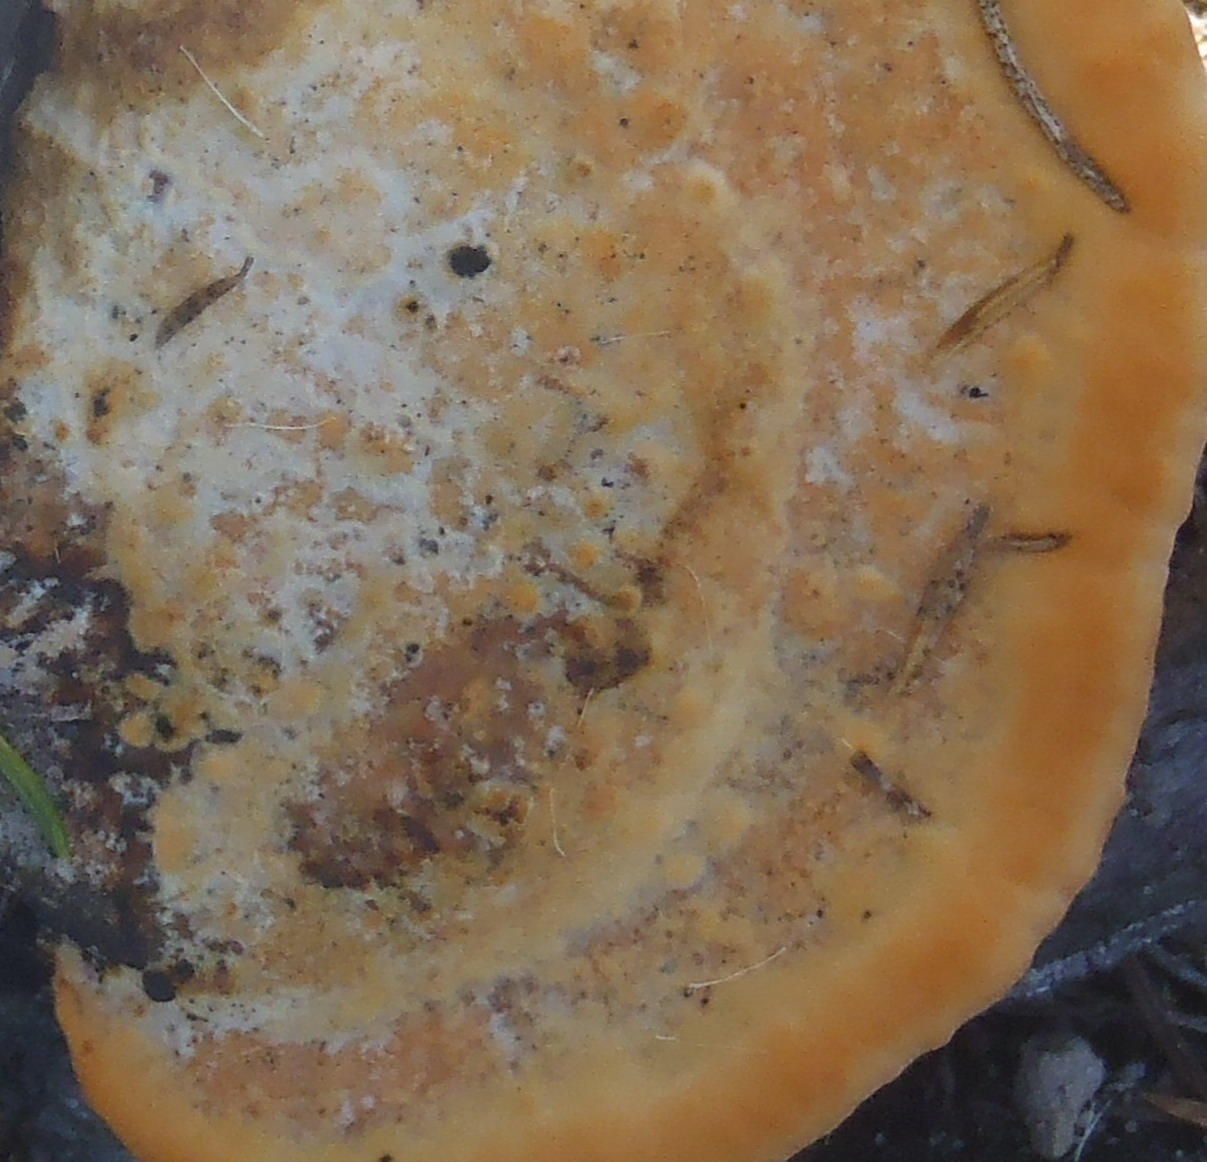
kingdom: Fungi
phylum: Basidiomycota
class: Agaricomycetes
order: Polyporales
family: Polyporaceae
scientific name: Polyporaceae
